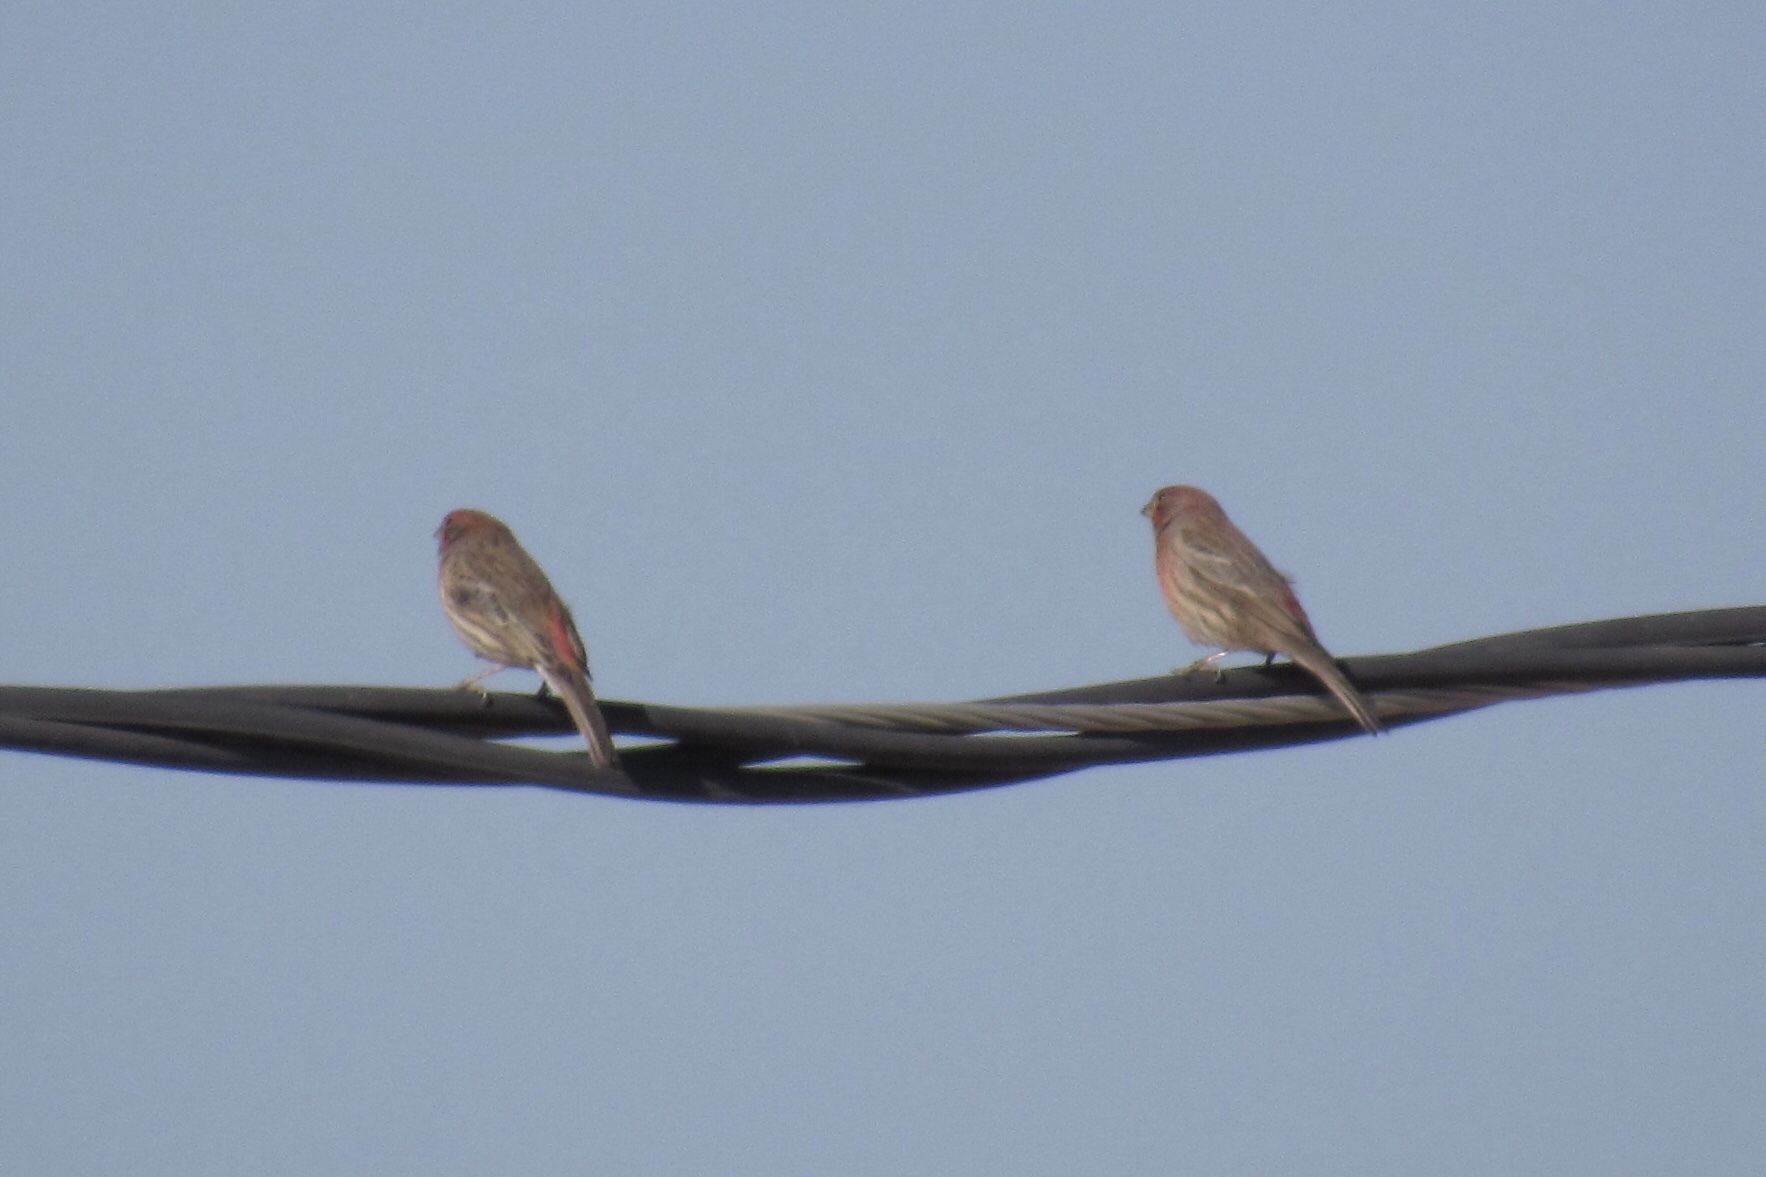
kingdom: Animalia
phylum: Chordata
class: Aves
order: Passeriformes
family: Fringillidae
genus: Haemorhous
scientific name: Haemorhous mexicanus
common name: House finch
